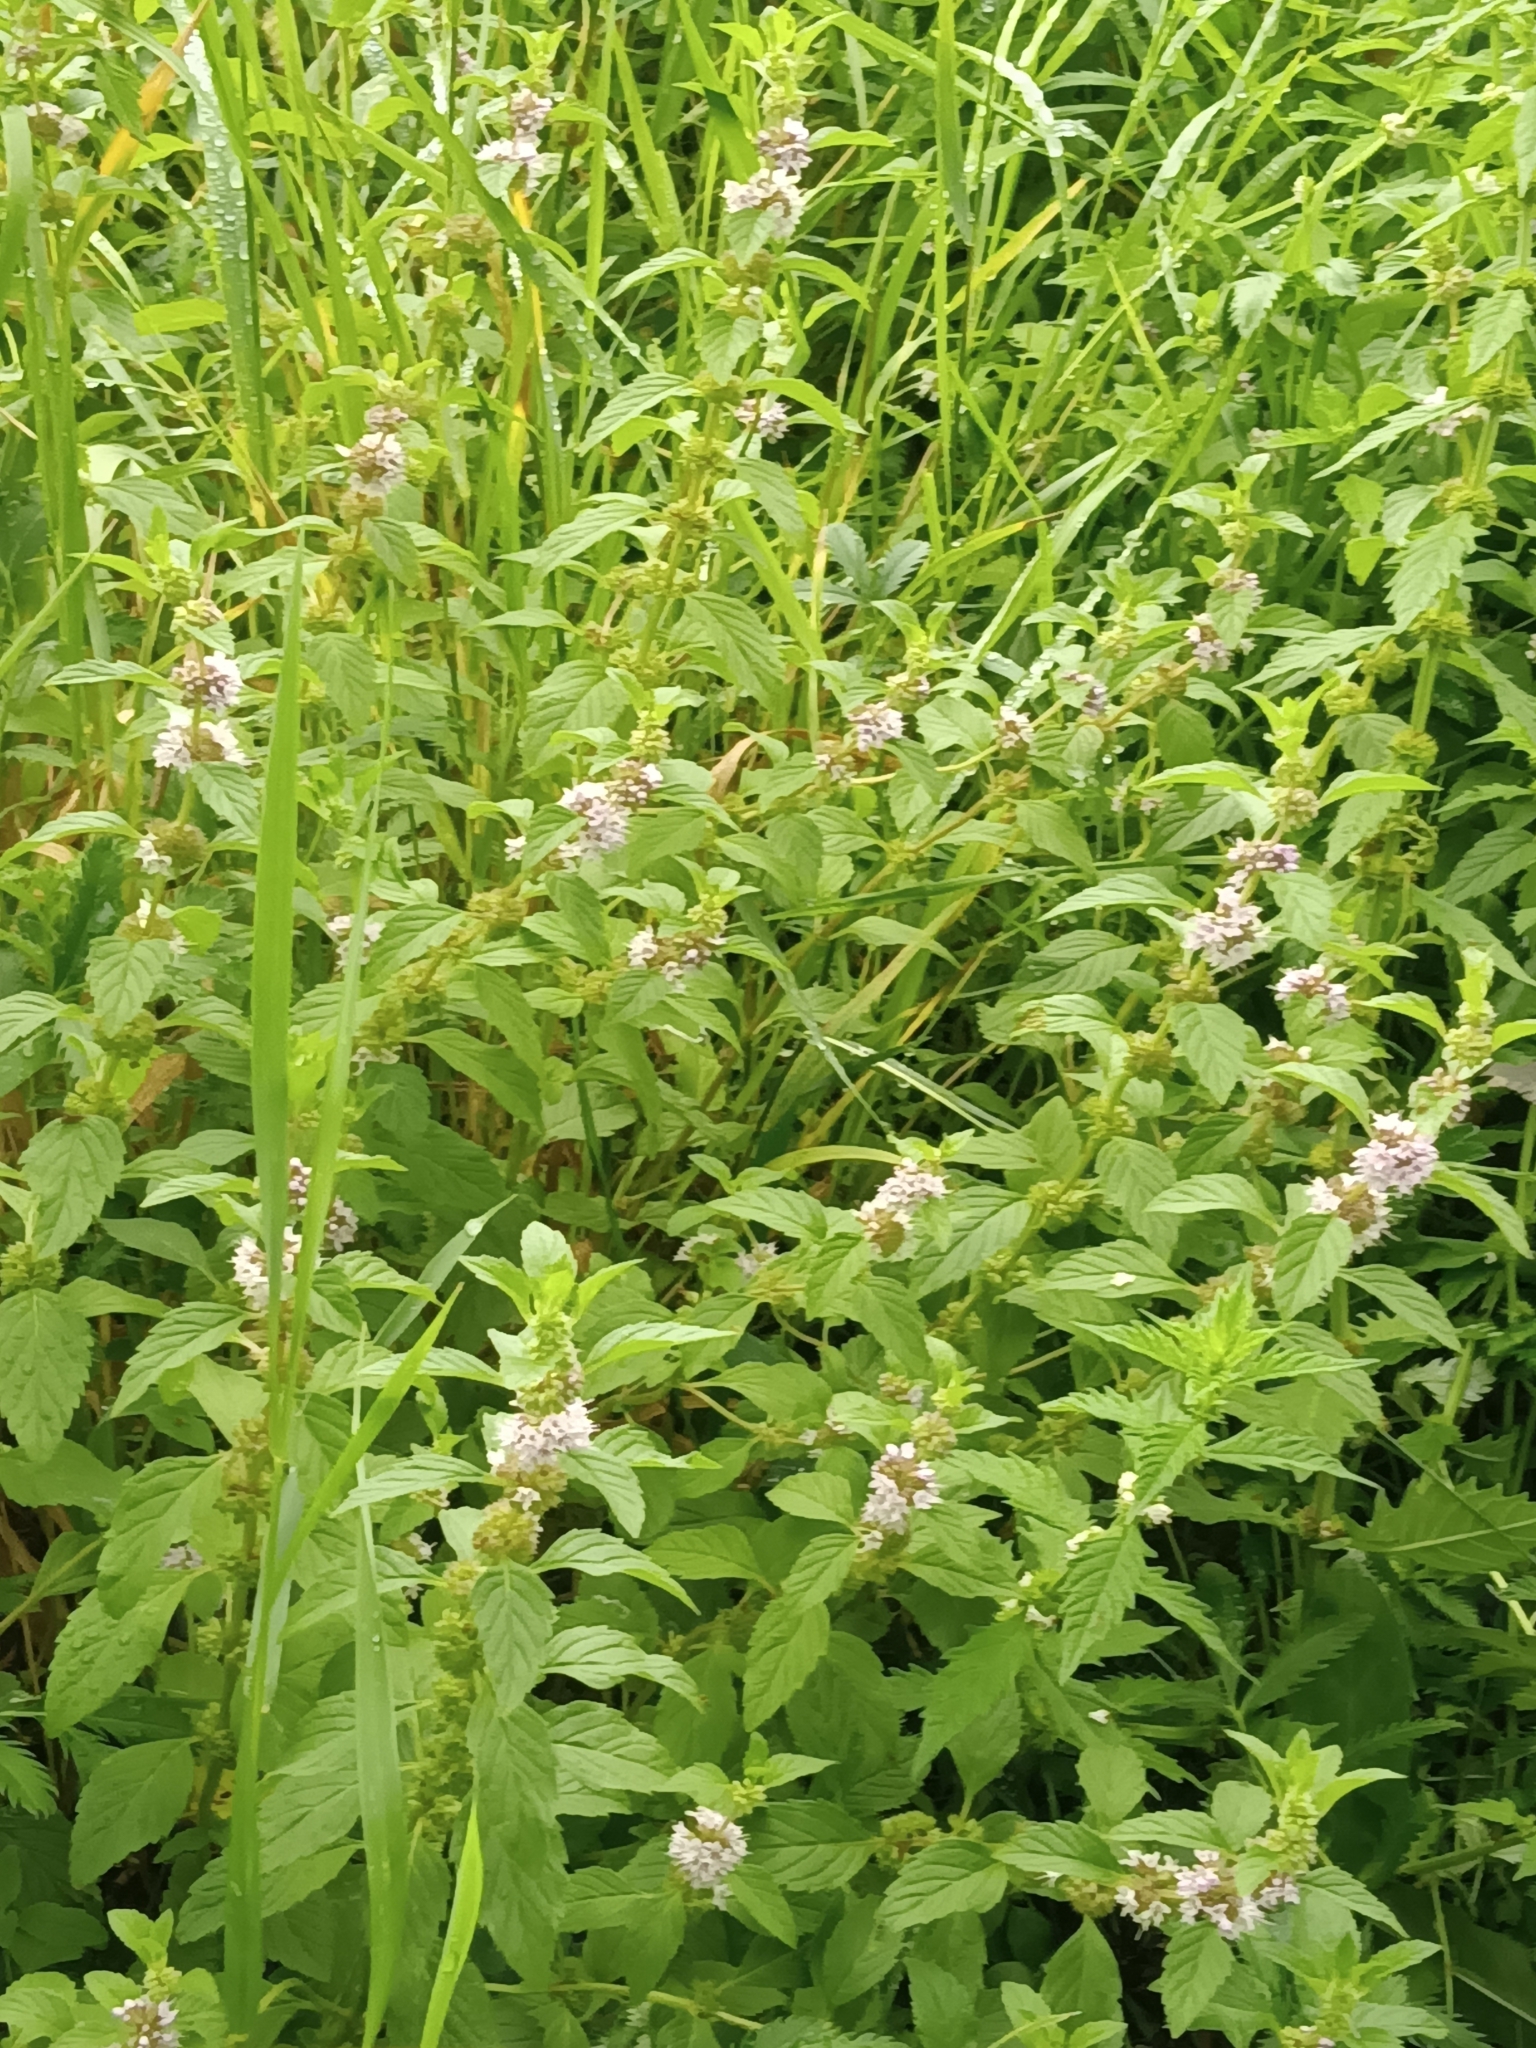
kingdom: Plantae
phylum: Tracheophyta
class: Magnoliopsida
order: Lamiales
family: Lamiaceae
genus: Mentha
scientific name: Mentha canadensis
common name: American corn mint
